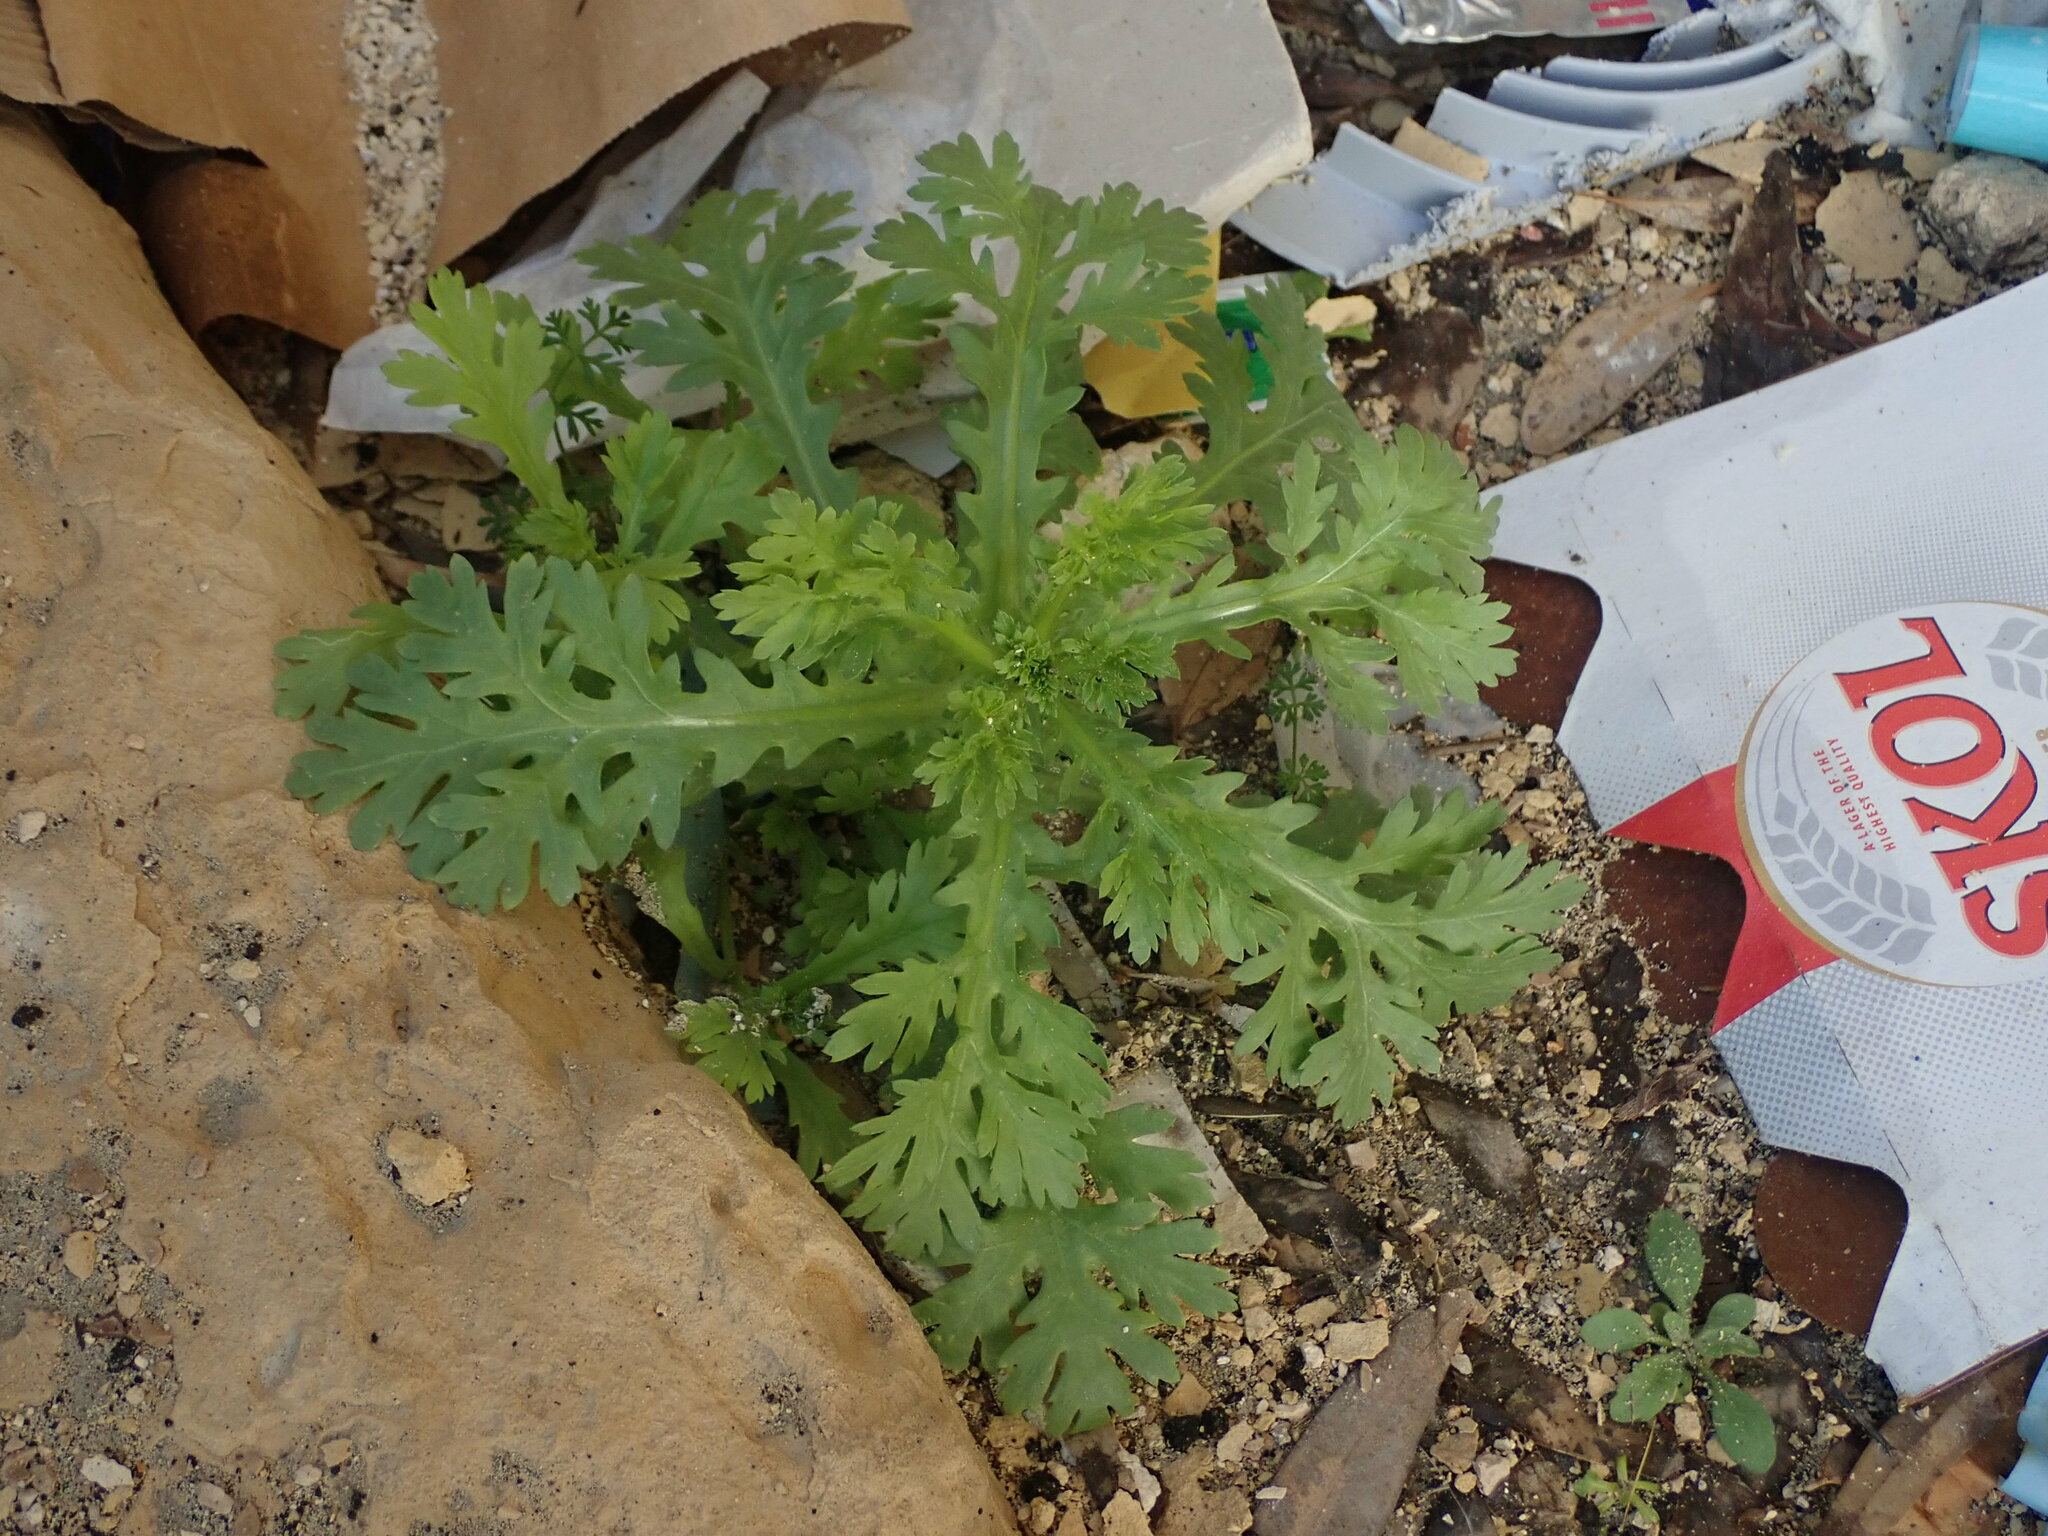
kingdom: Plantae
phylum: Tracheophyta
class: Magnoliopsida
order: Asterales
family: Asteraceae
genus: Glebionis
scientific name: Glebionis coronaria
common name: Crowndaisy
